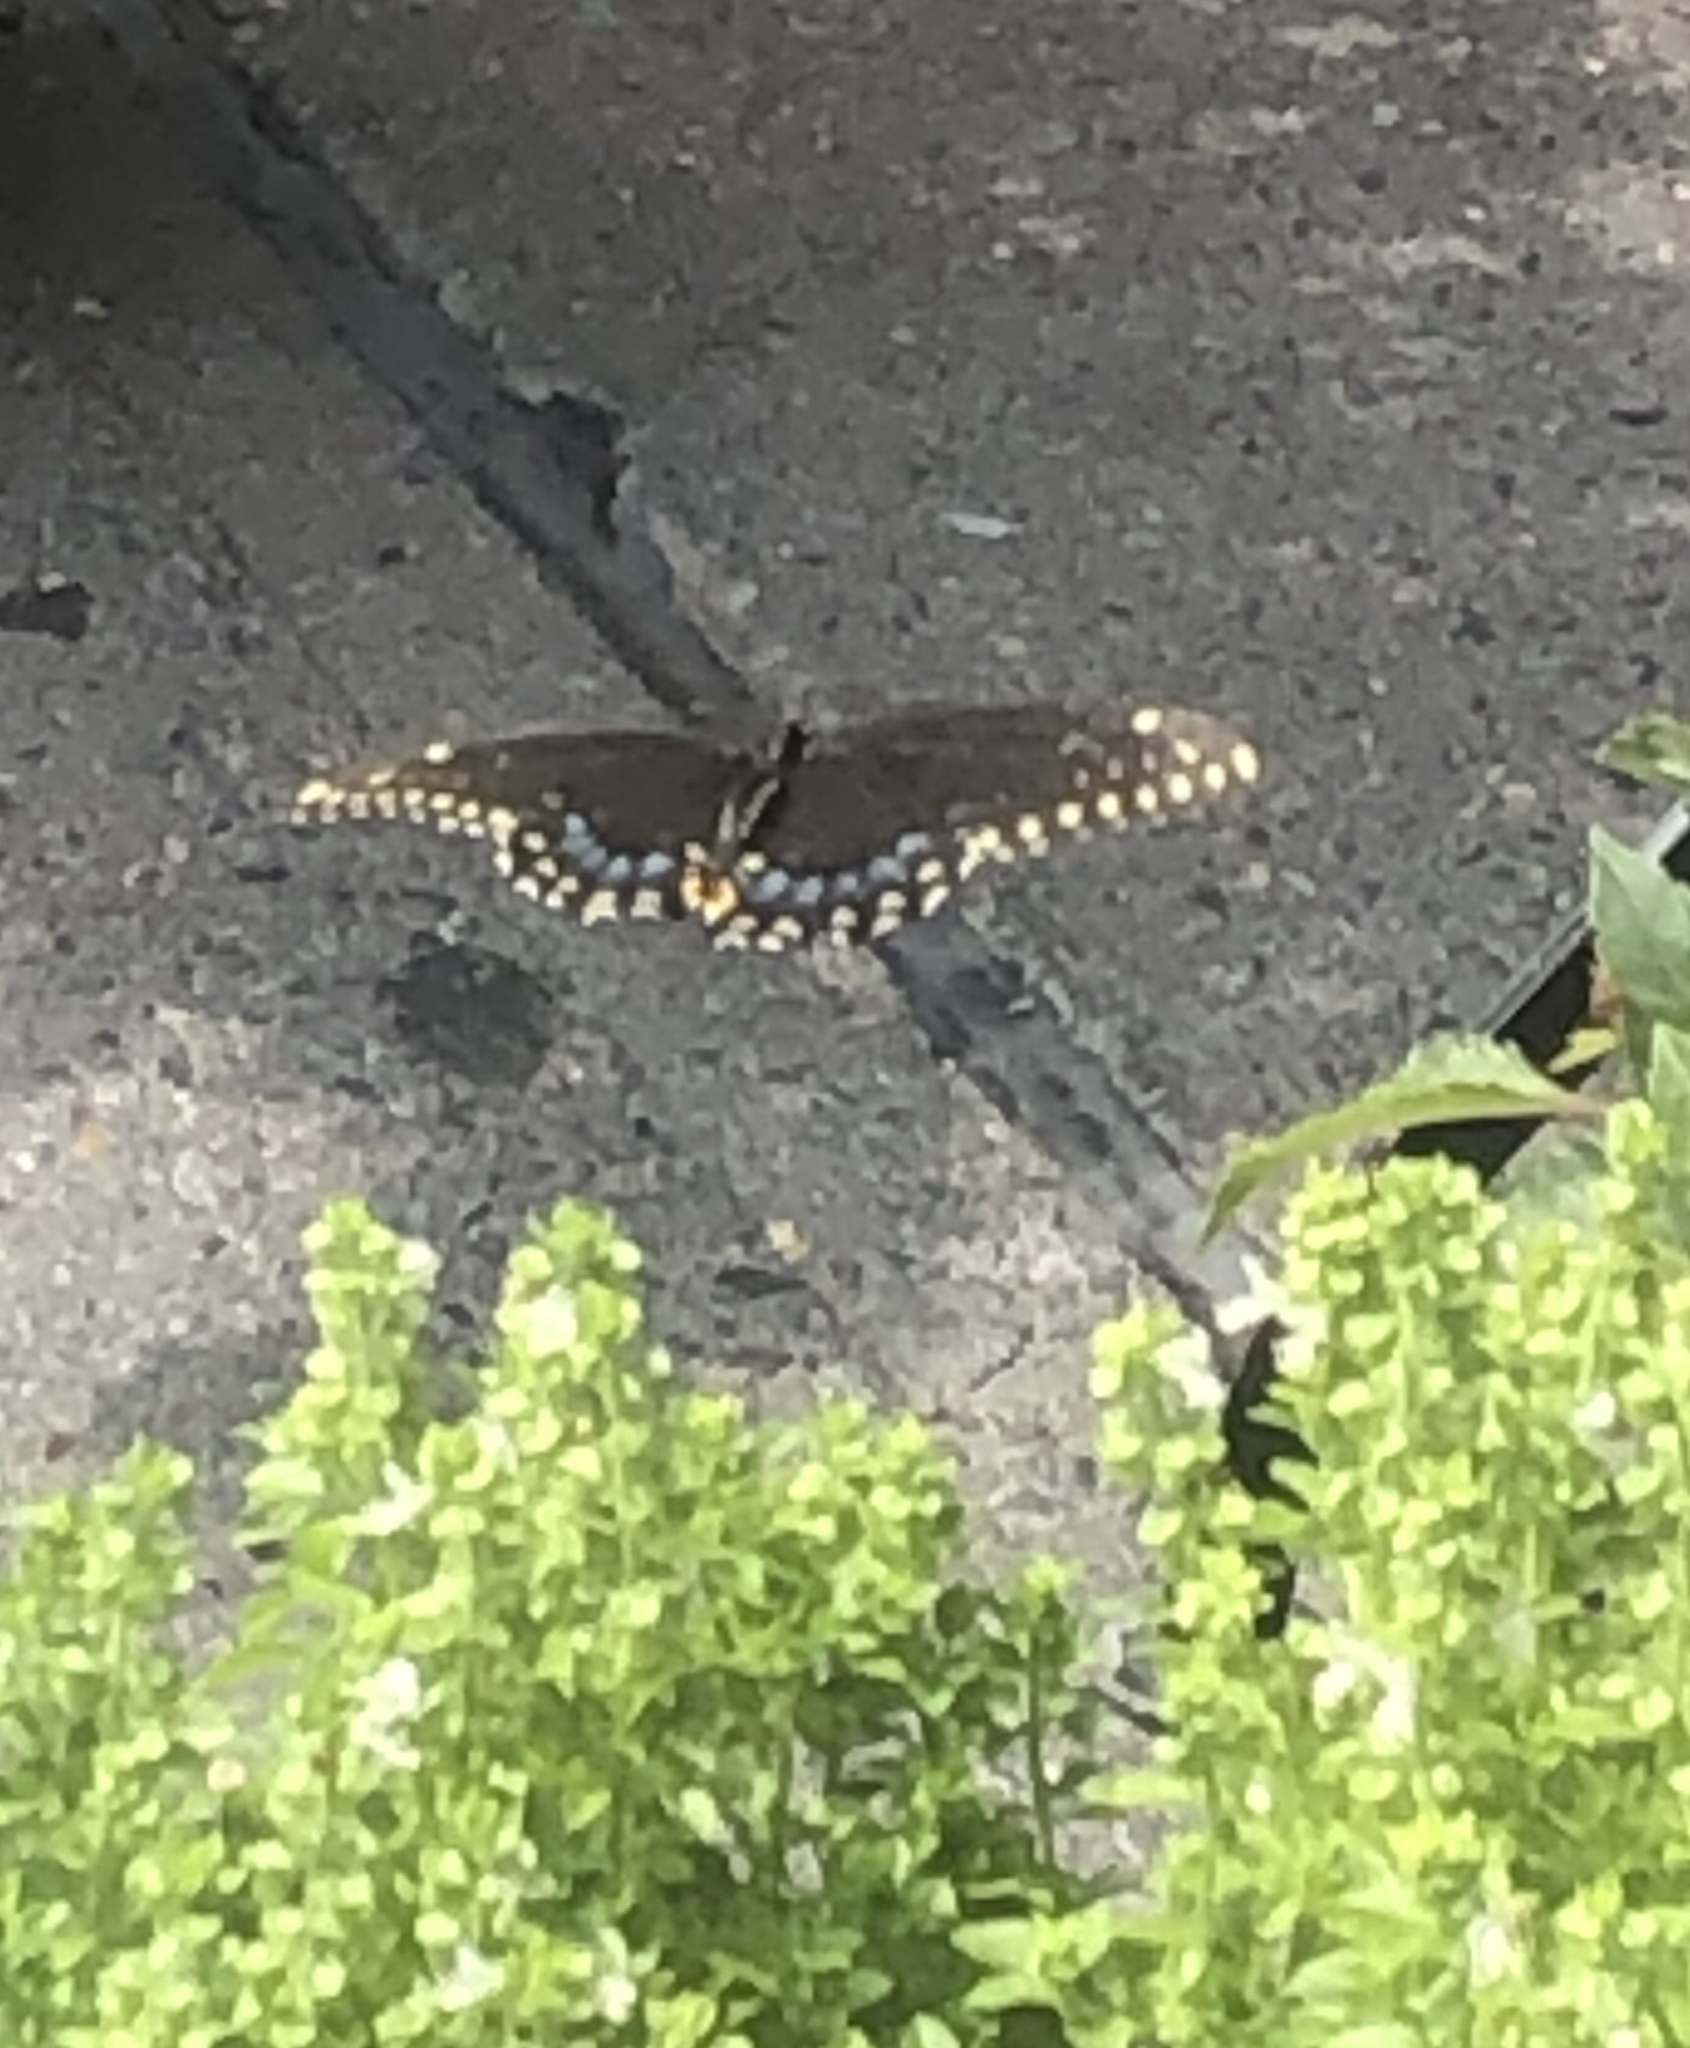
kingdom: Animalia
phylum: Arthropoda
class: Insecta
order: Lepidoptera
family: Papilionidae
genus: Papilio
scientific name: Papilio polyxenes
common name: Black swallowtail
